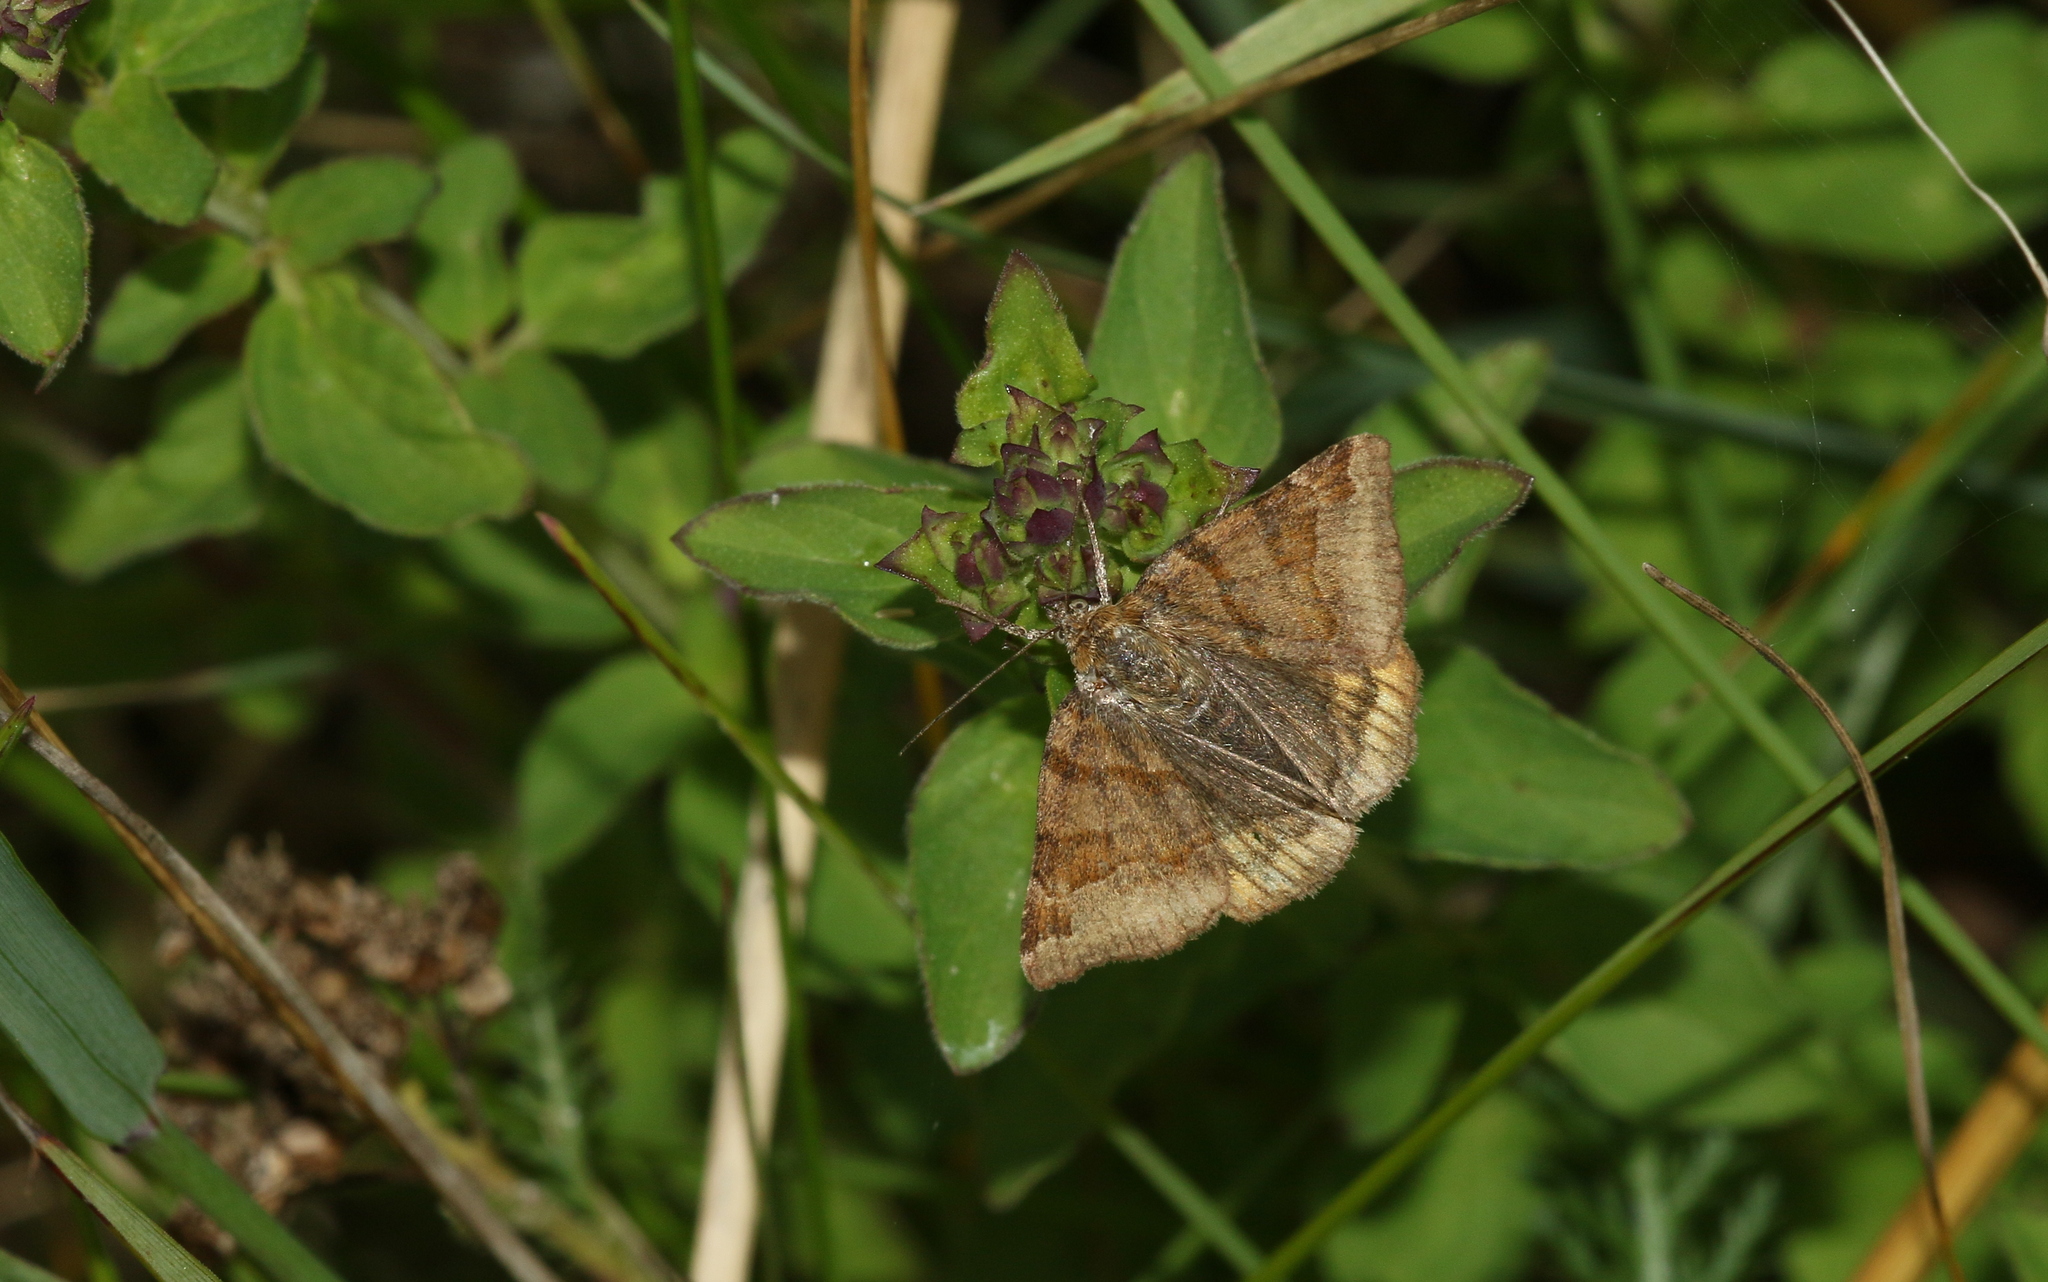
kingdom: Animalia
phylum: Arthropoda
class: Insecta
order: Lepidoptera
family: Erebidae
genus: Euclidia
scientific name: Euclidia glyphica
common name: Burnet companion
